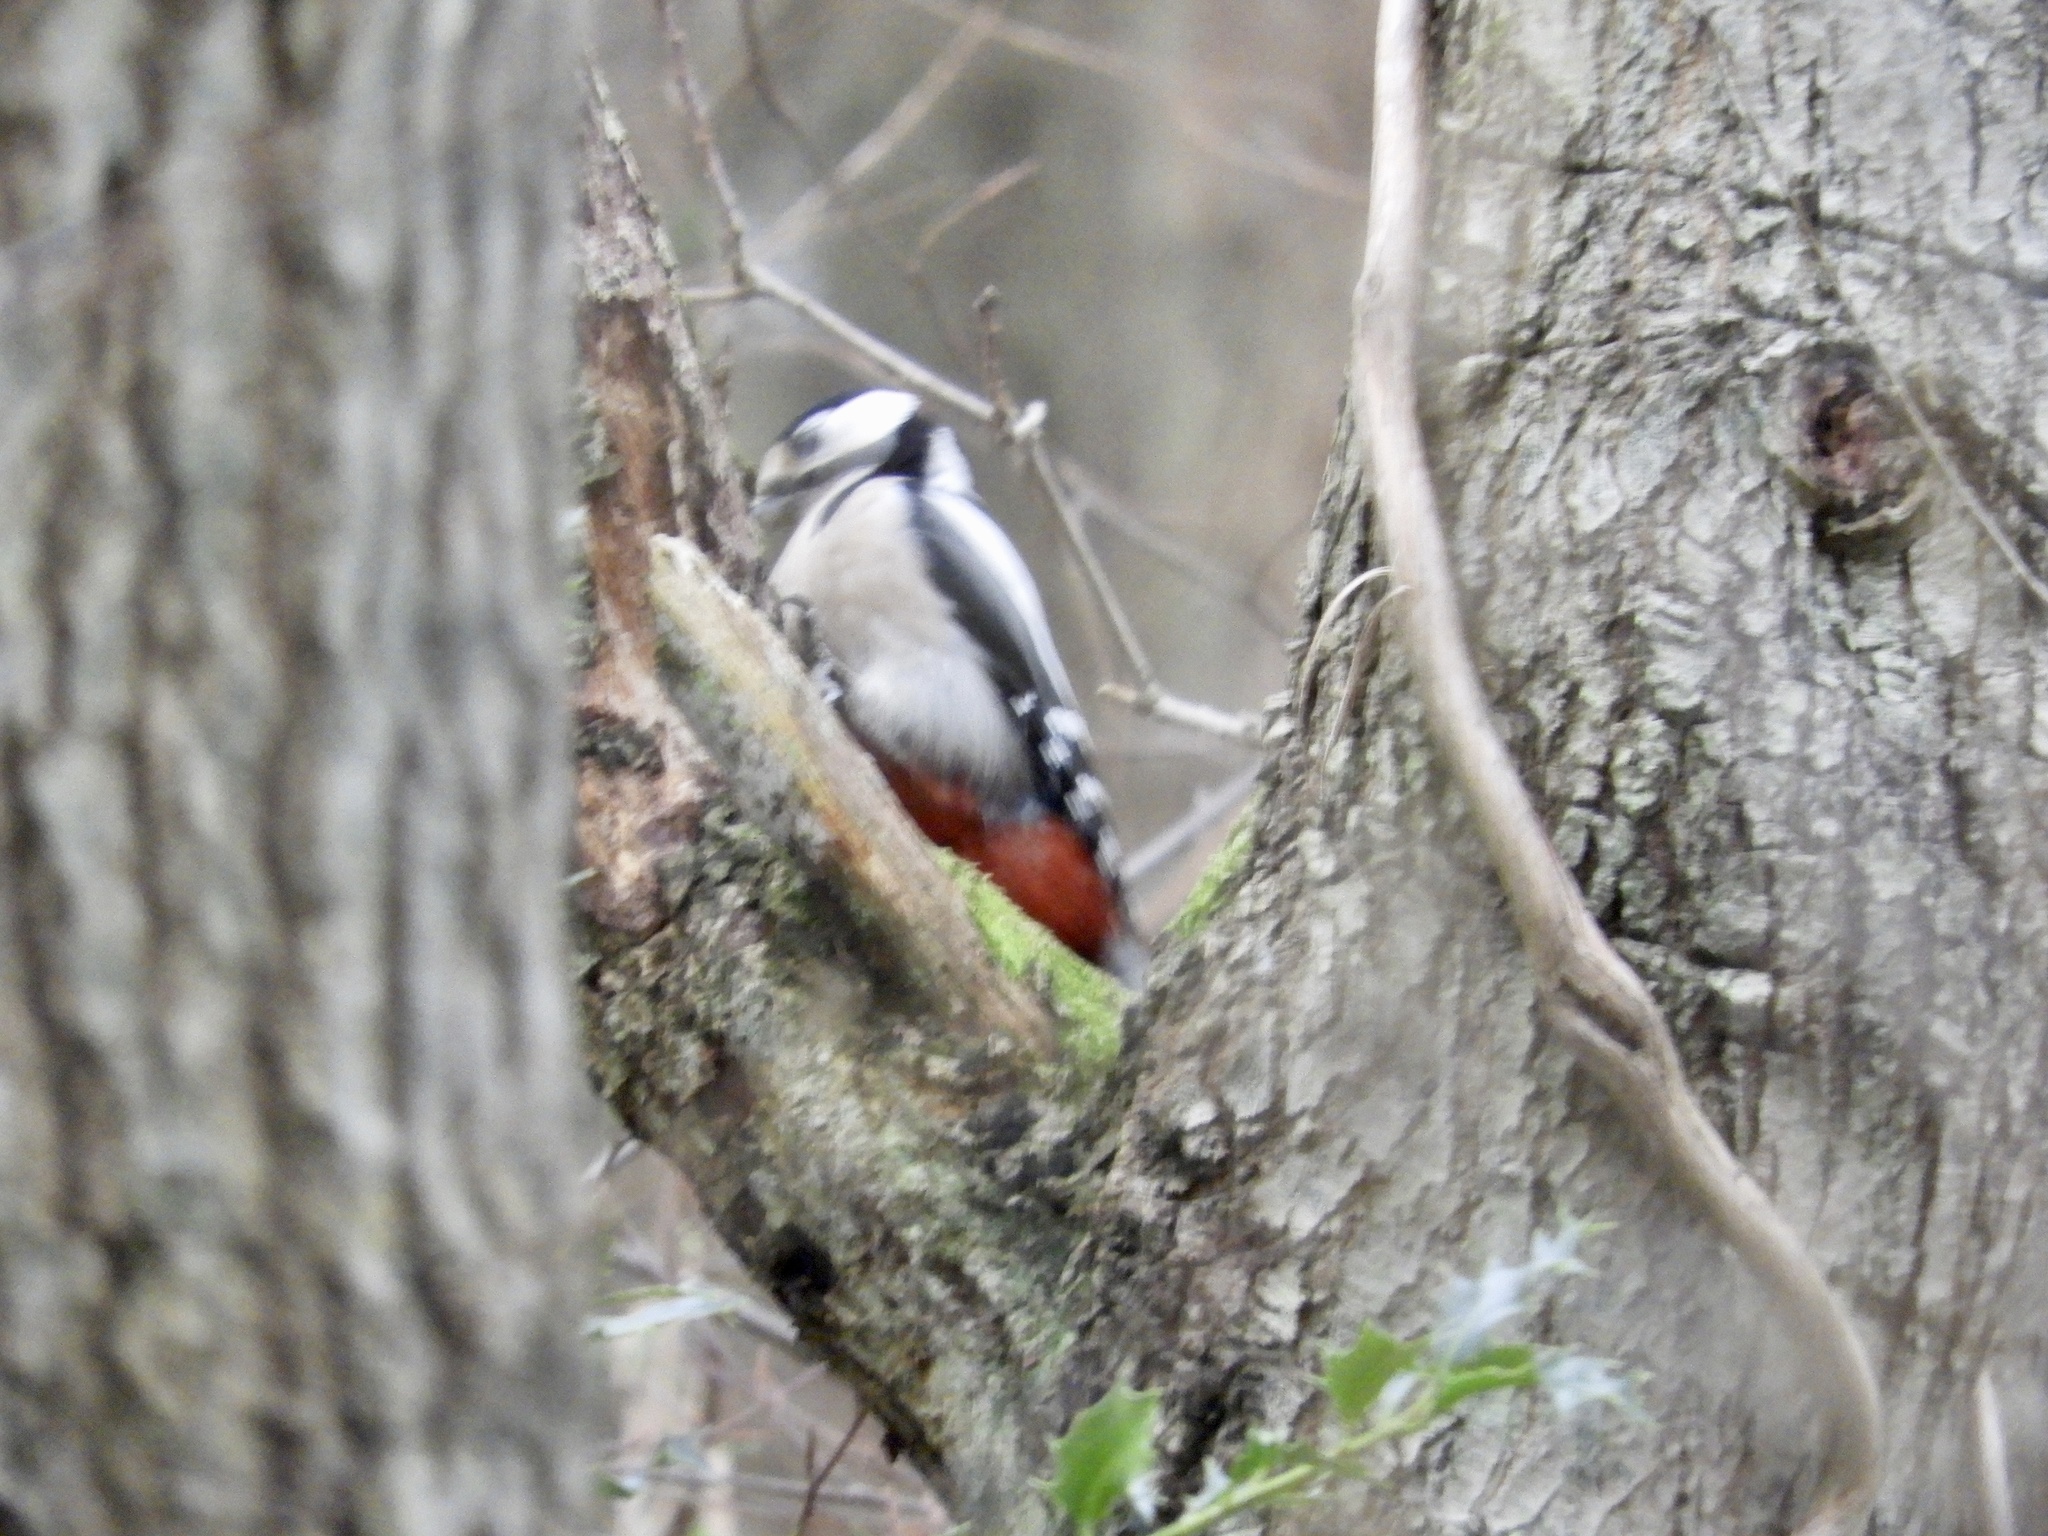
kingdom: Animalia
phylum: Chordata
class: Aves
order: Piciformes
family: Picidae
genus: Dendrocopos
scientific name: Dendrocopos major
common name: Great spotted woodpecker
